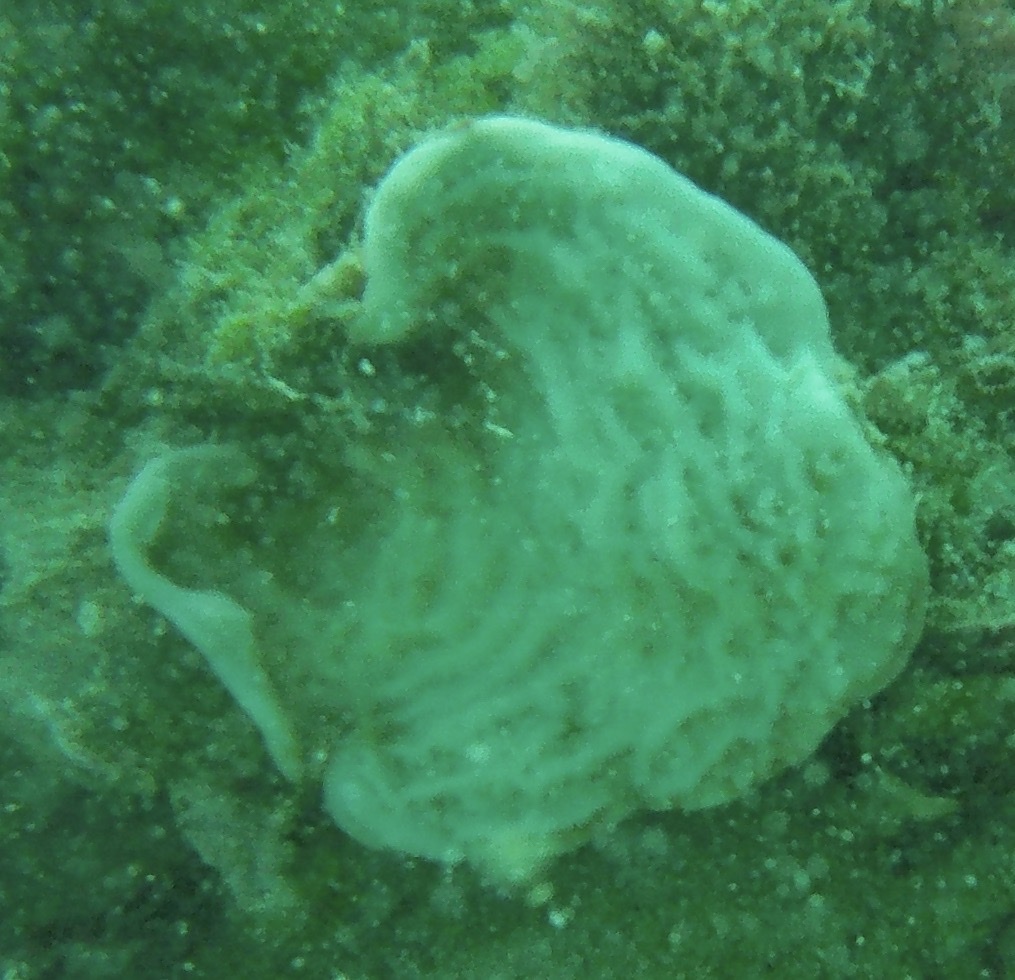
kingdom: Animalia
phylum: Cnidaria
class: Anthozoa
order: Scleractinia
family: Agariciidae
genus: Agaricia
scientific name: Agaricia fragilis
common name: Fragile saucer coral
